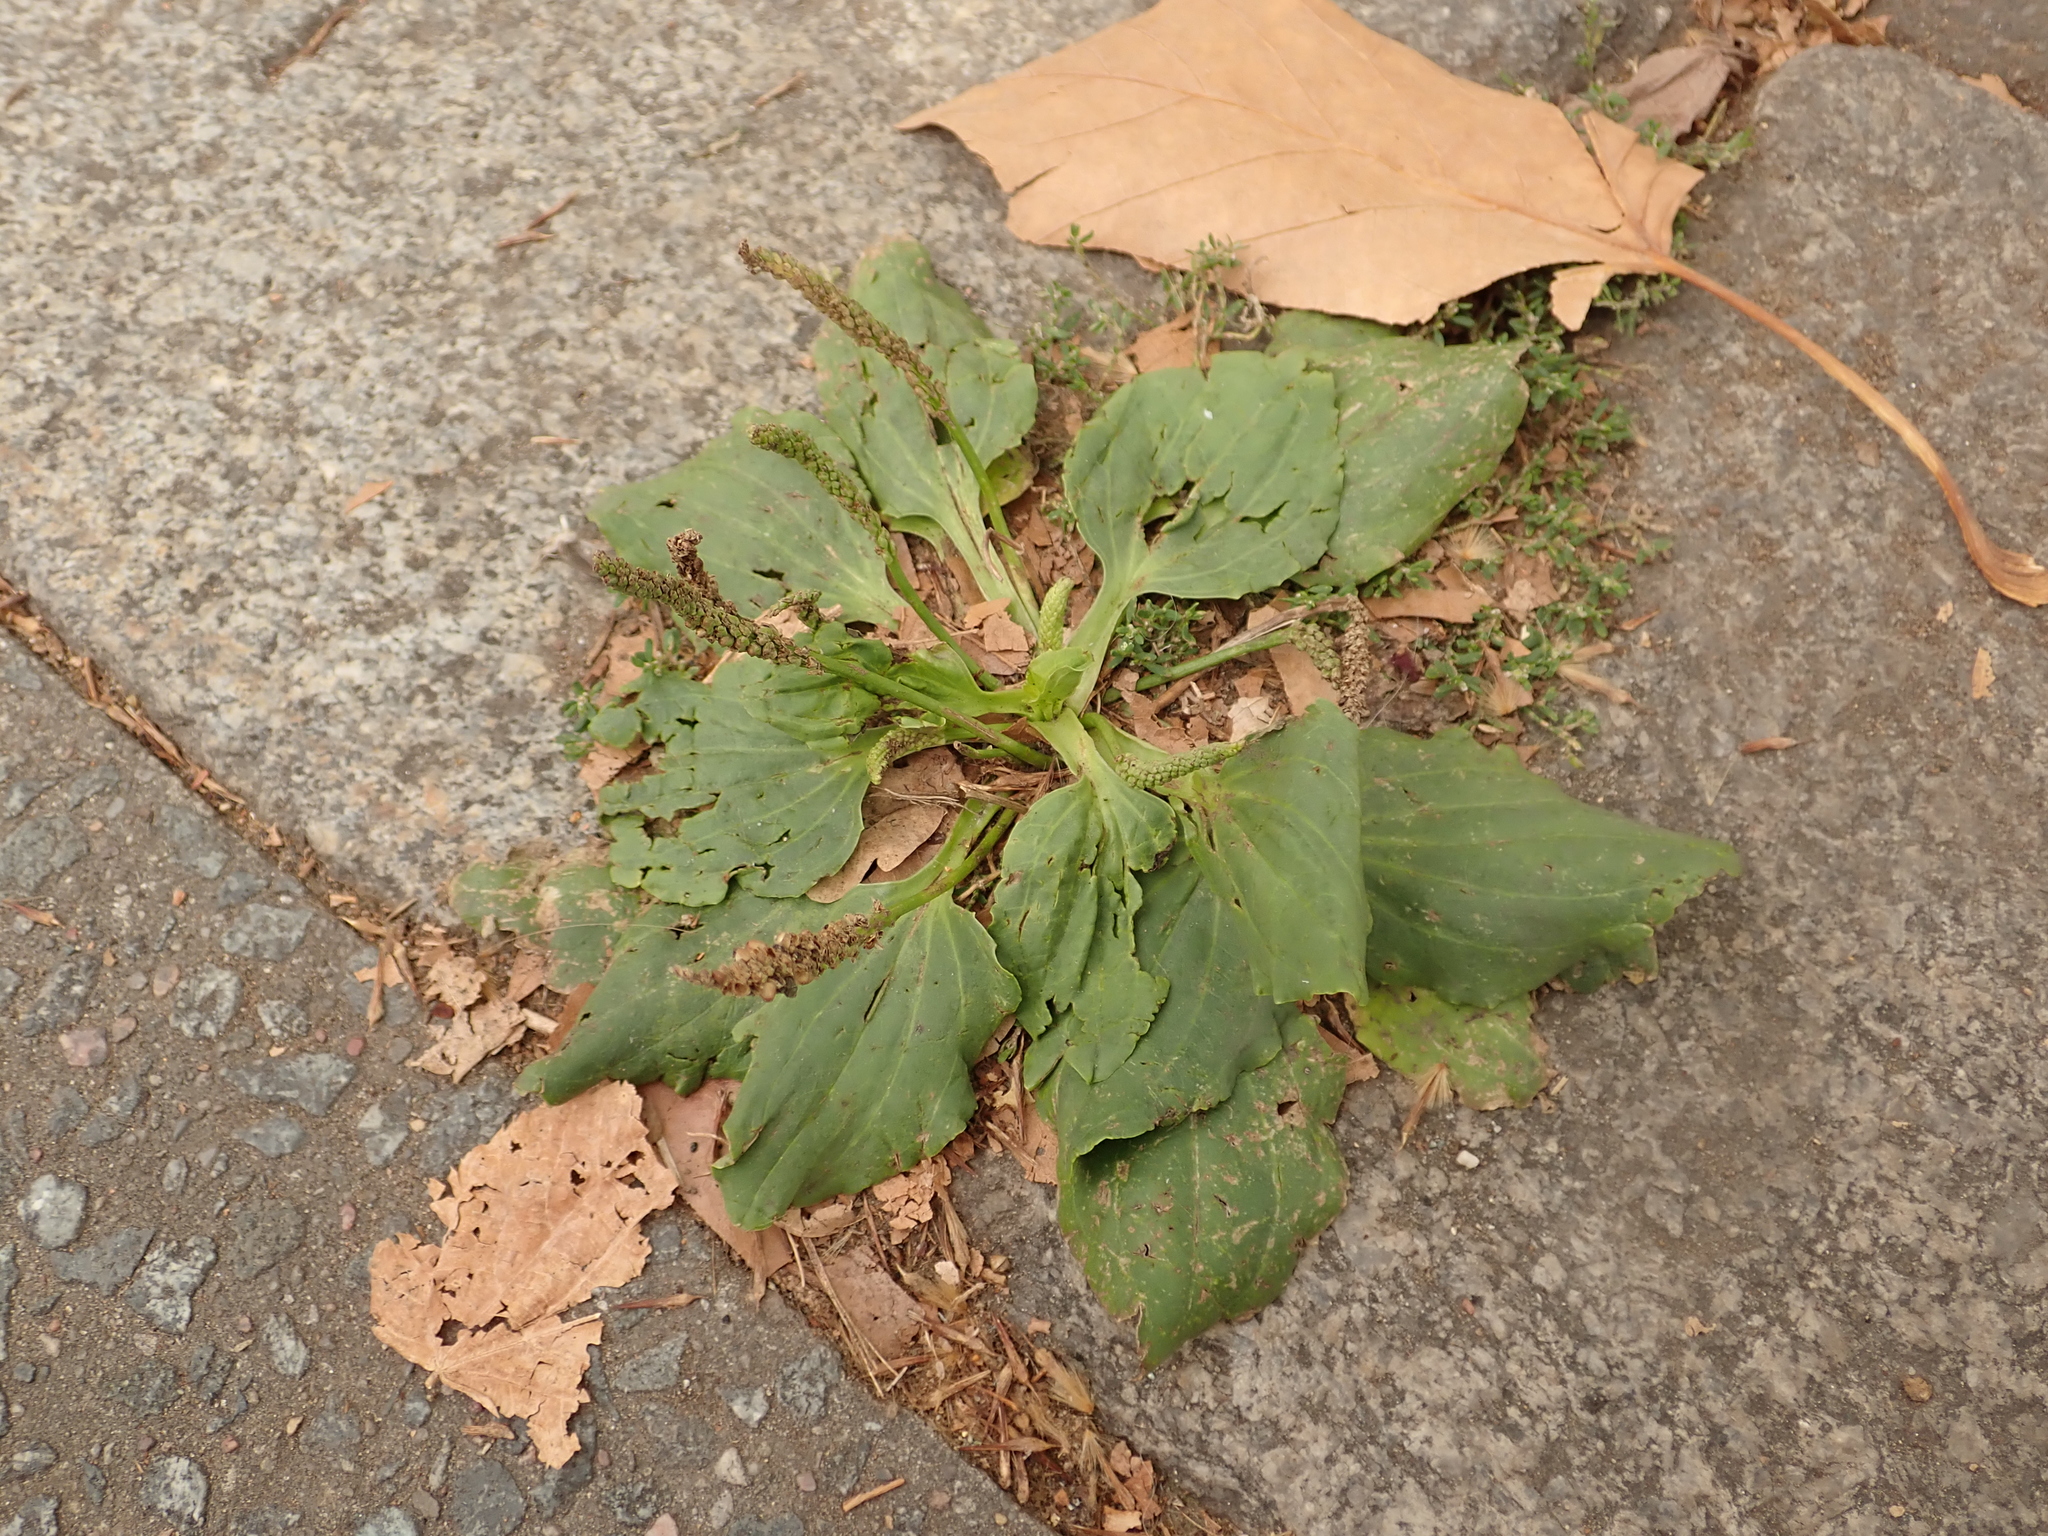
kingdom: Plantae
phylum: Tracheophyta
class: Magnoliopsida
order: Lamiales
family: Plantaginaceae
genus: Plantago
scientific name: Plantago major
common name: Common plantain
